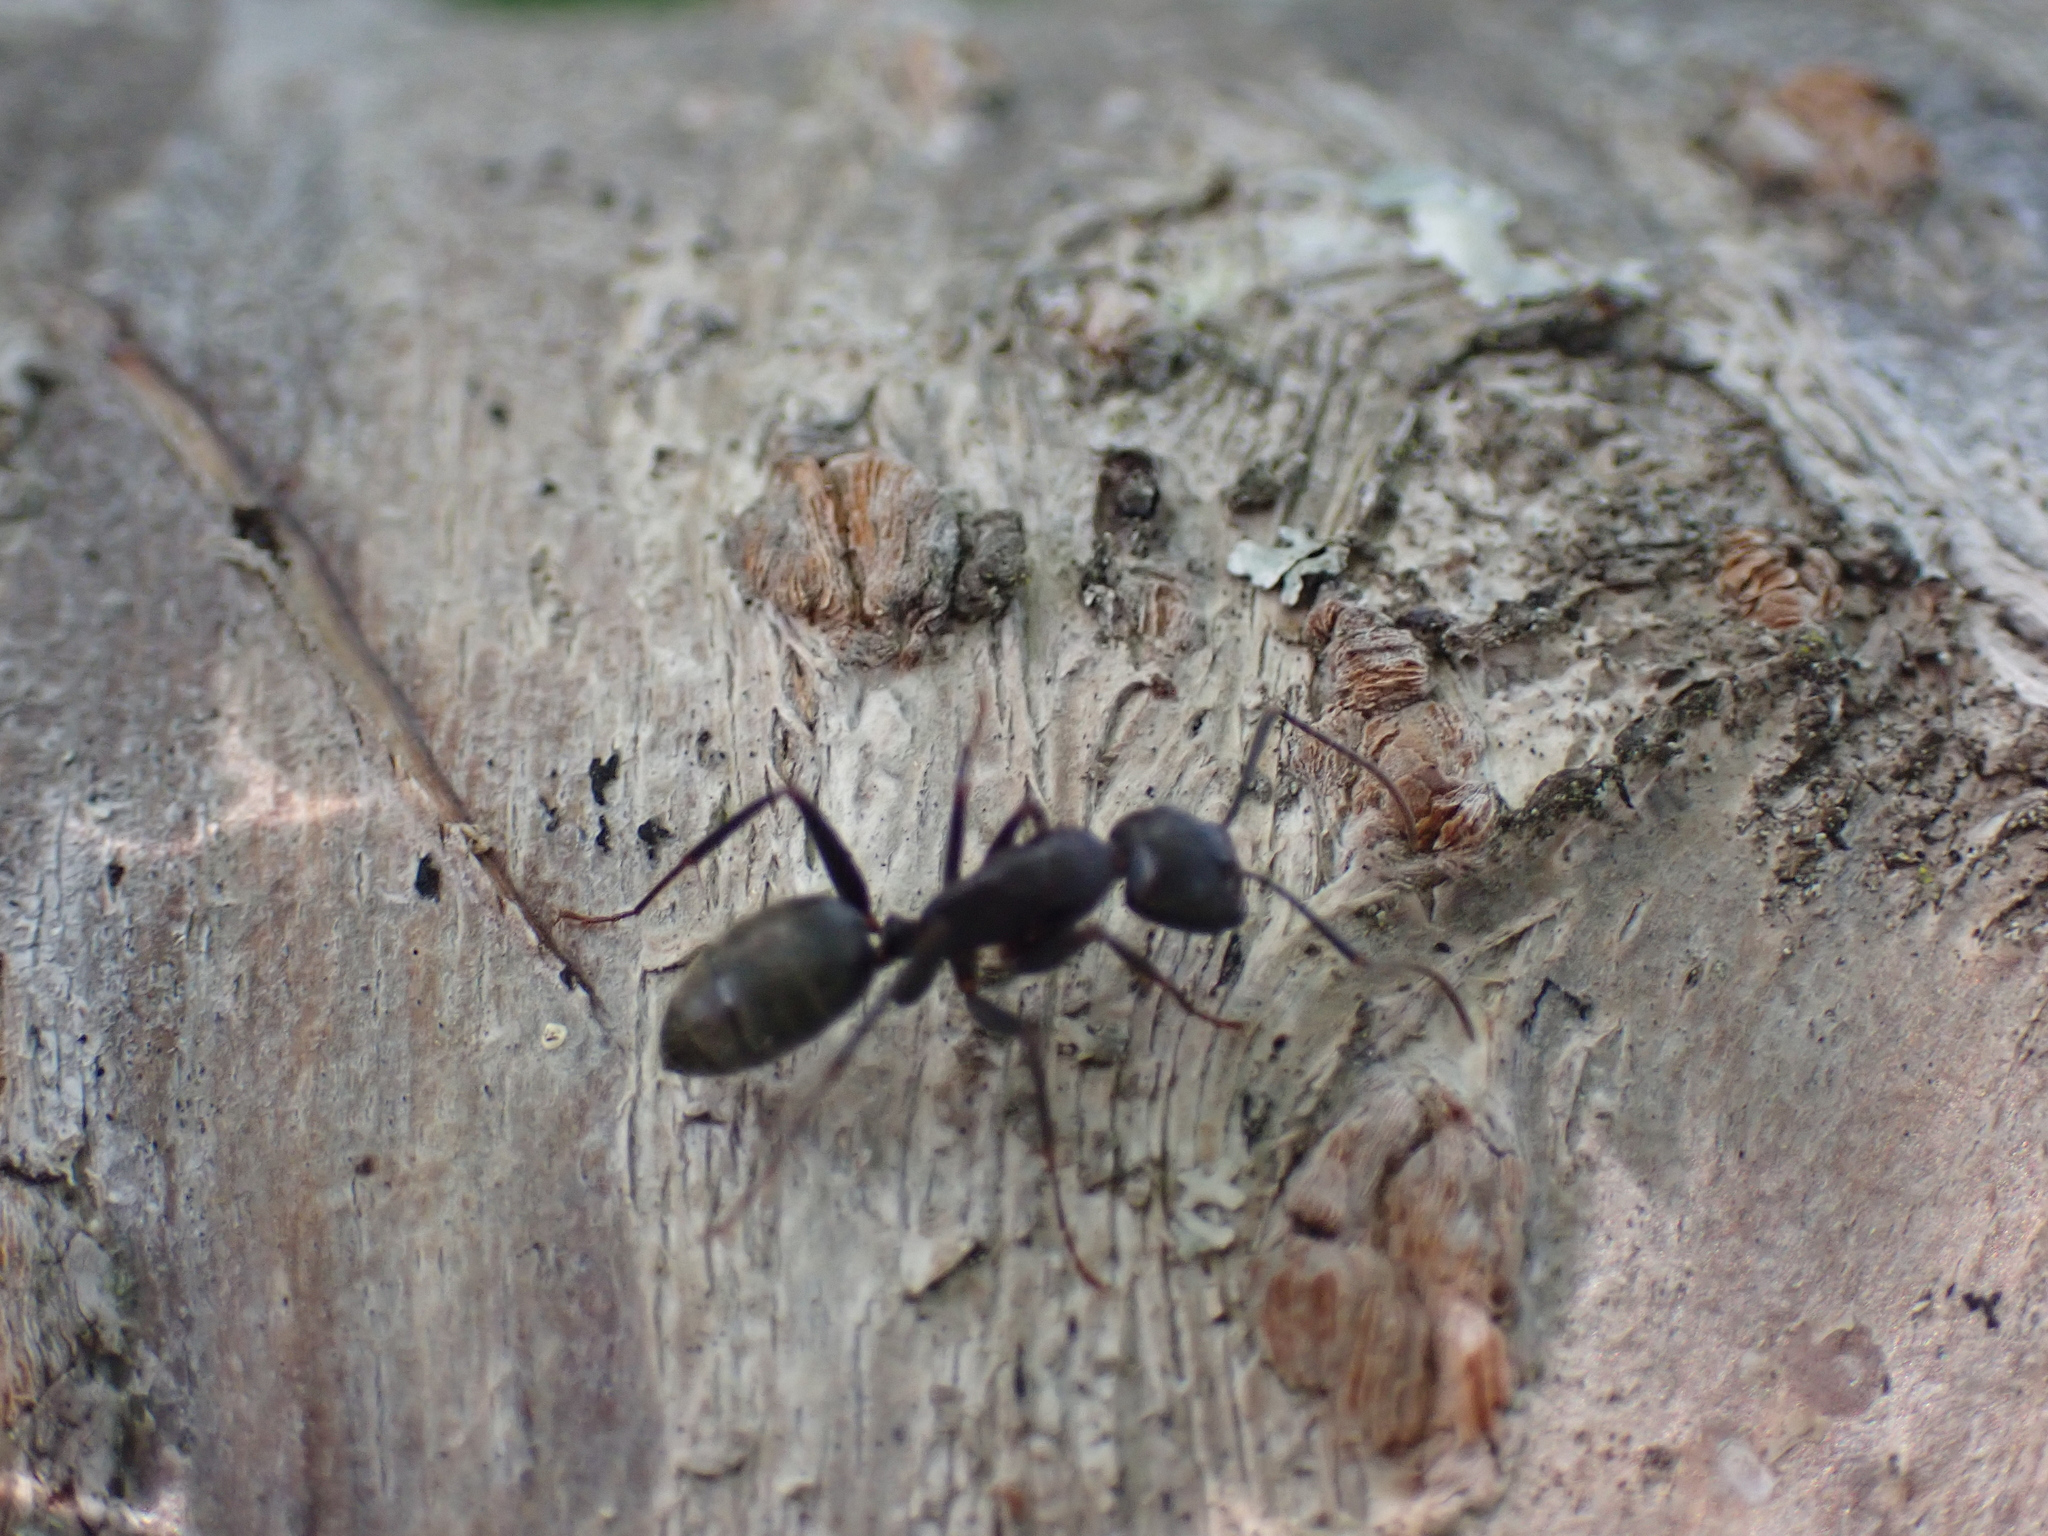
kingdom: Animalia
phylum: Arthropoda
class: Insecta
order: Hymenoptera
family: Formicidae
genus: Camponotus
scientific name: Camponotus pennsylvanicus
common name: Black carpenter ant
